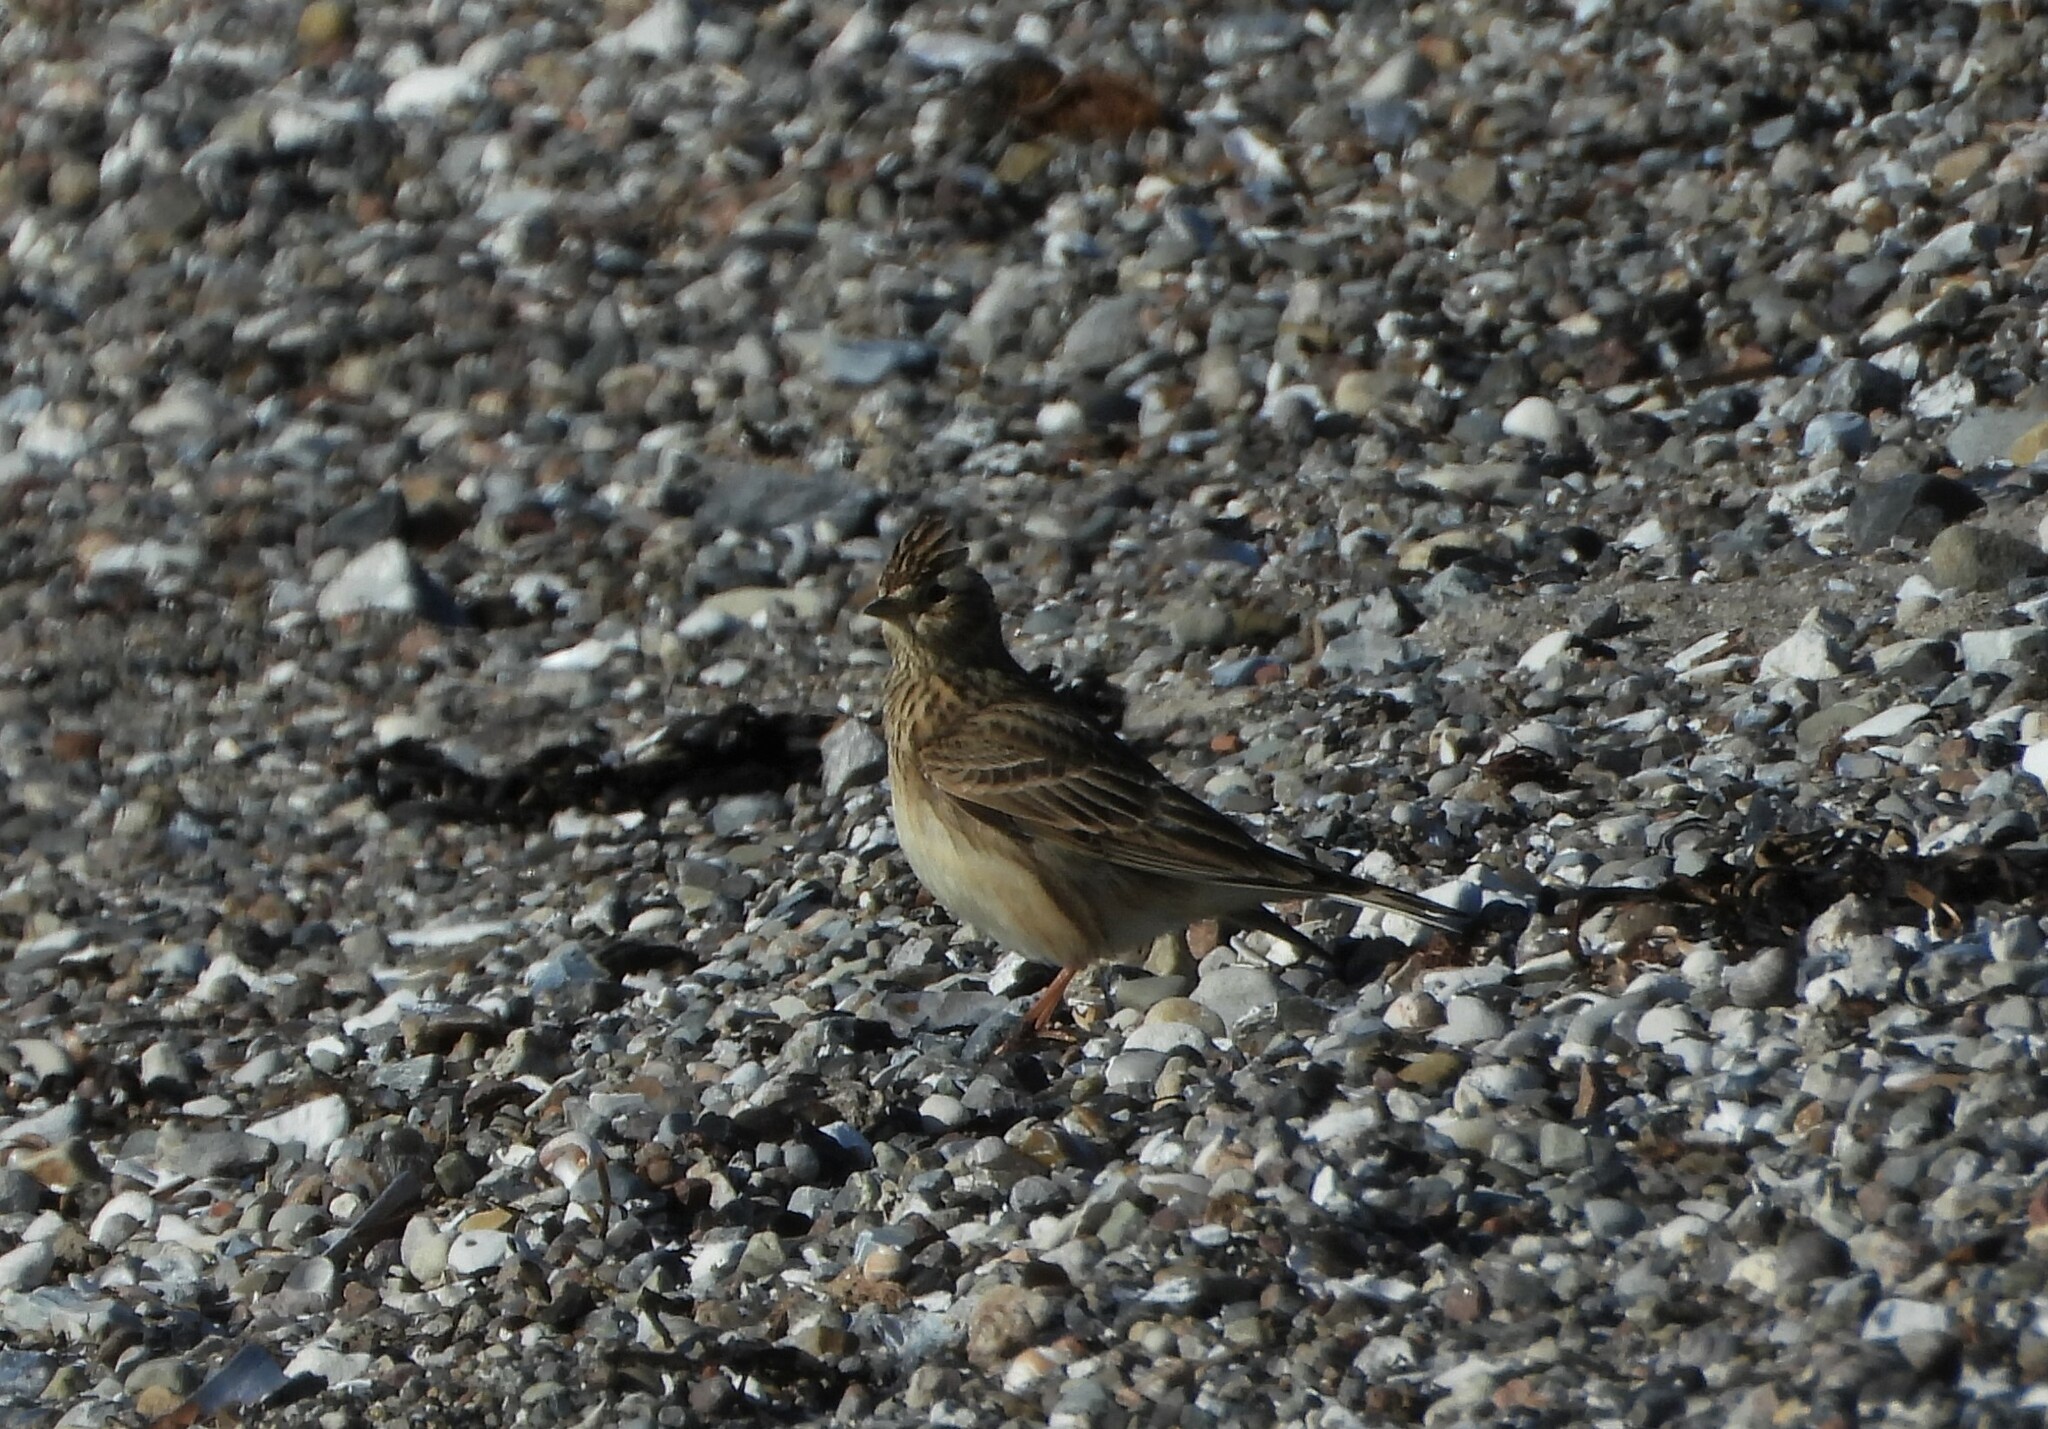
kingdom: Animalia
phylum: Chordata
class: Aves
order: Passeriformes
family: Alaudidae
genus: Alauda
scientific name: Alauda arvensis
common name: Eurasian skylark
